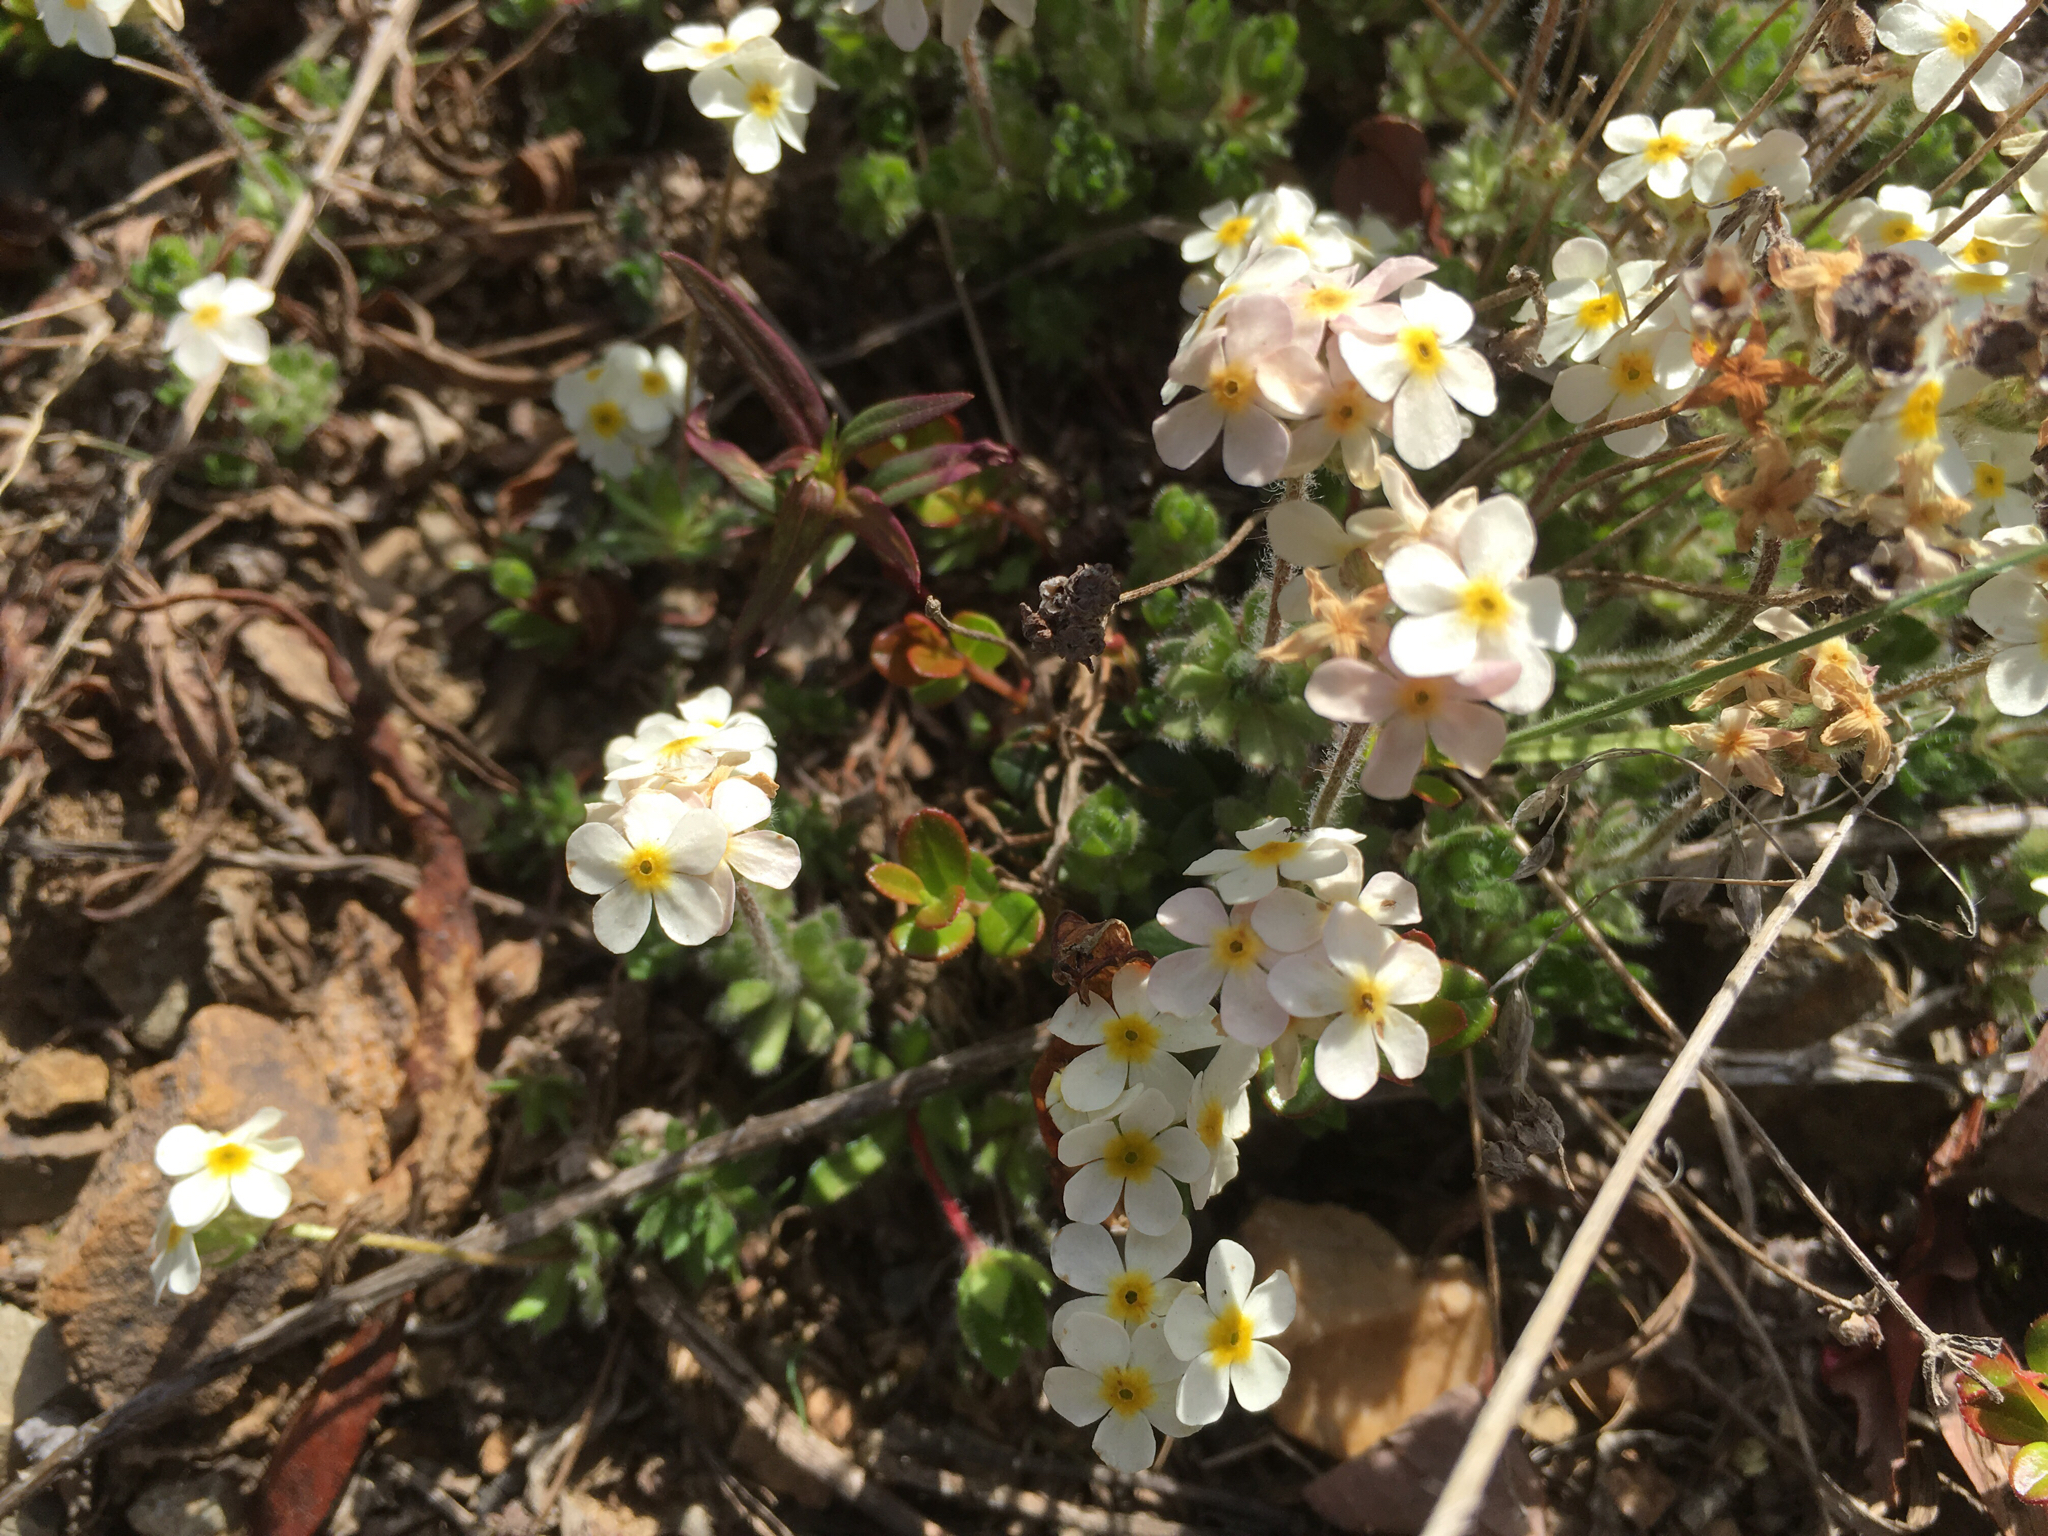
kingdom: Plantae
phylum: Tracheophyta
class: Magnoliopsida
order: Ericales
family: Primulaceae
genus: Androsace
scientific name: Androsace chamaejasme
